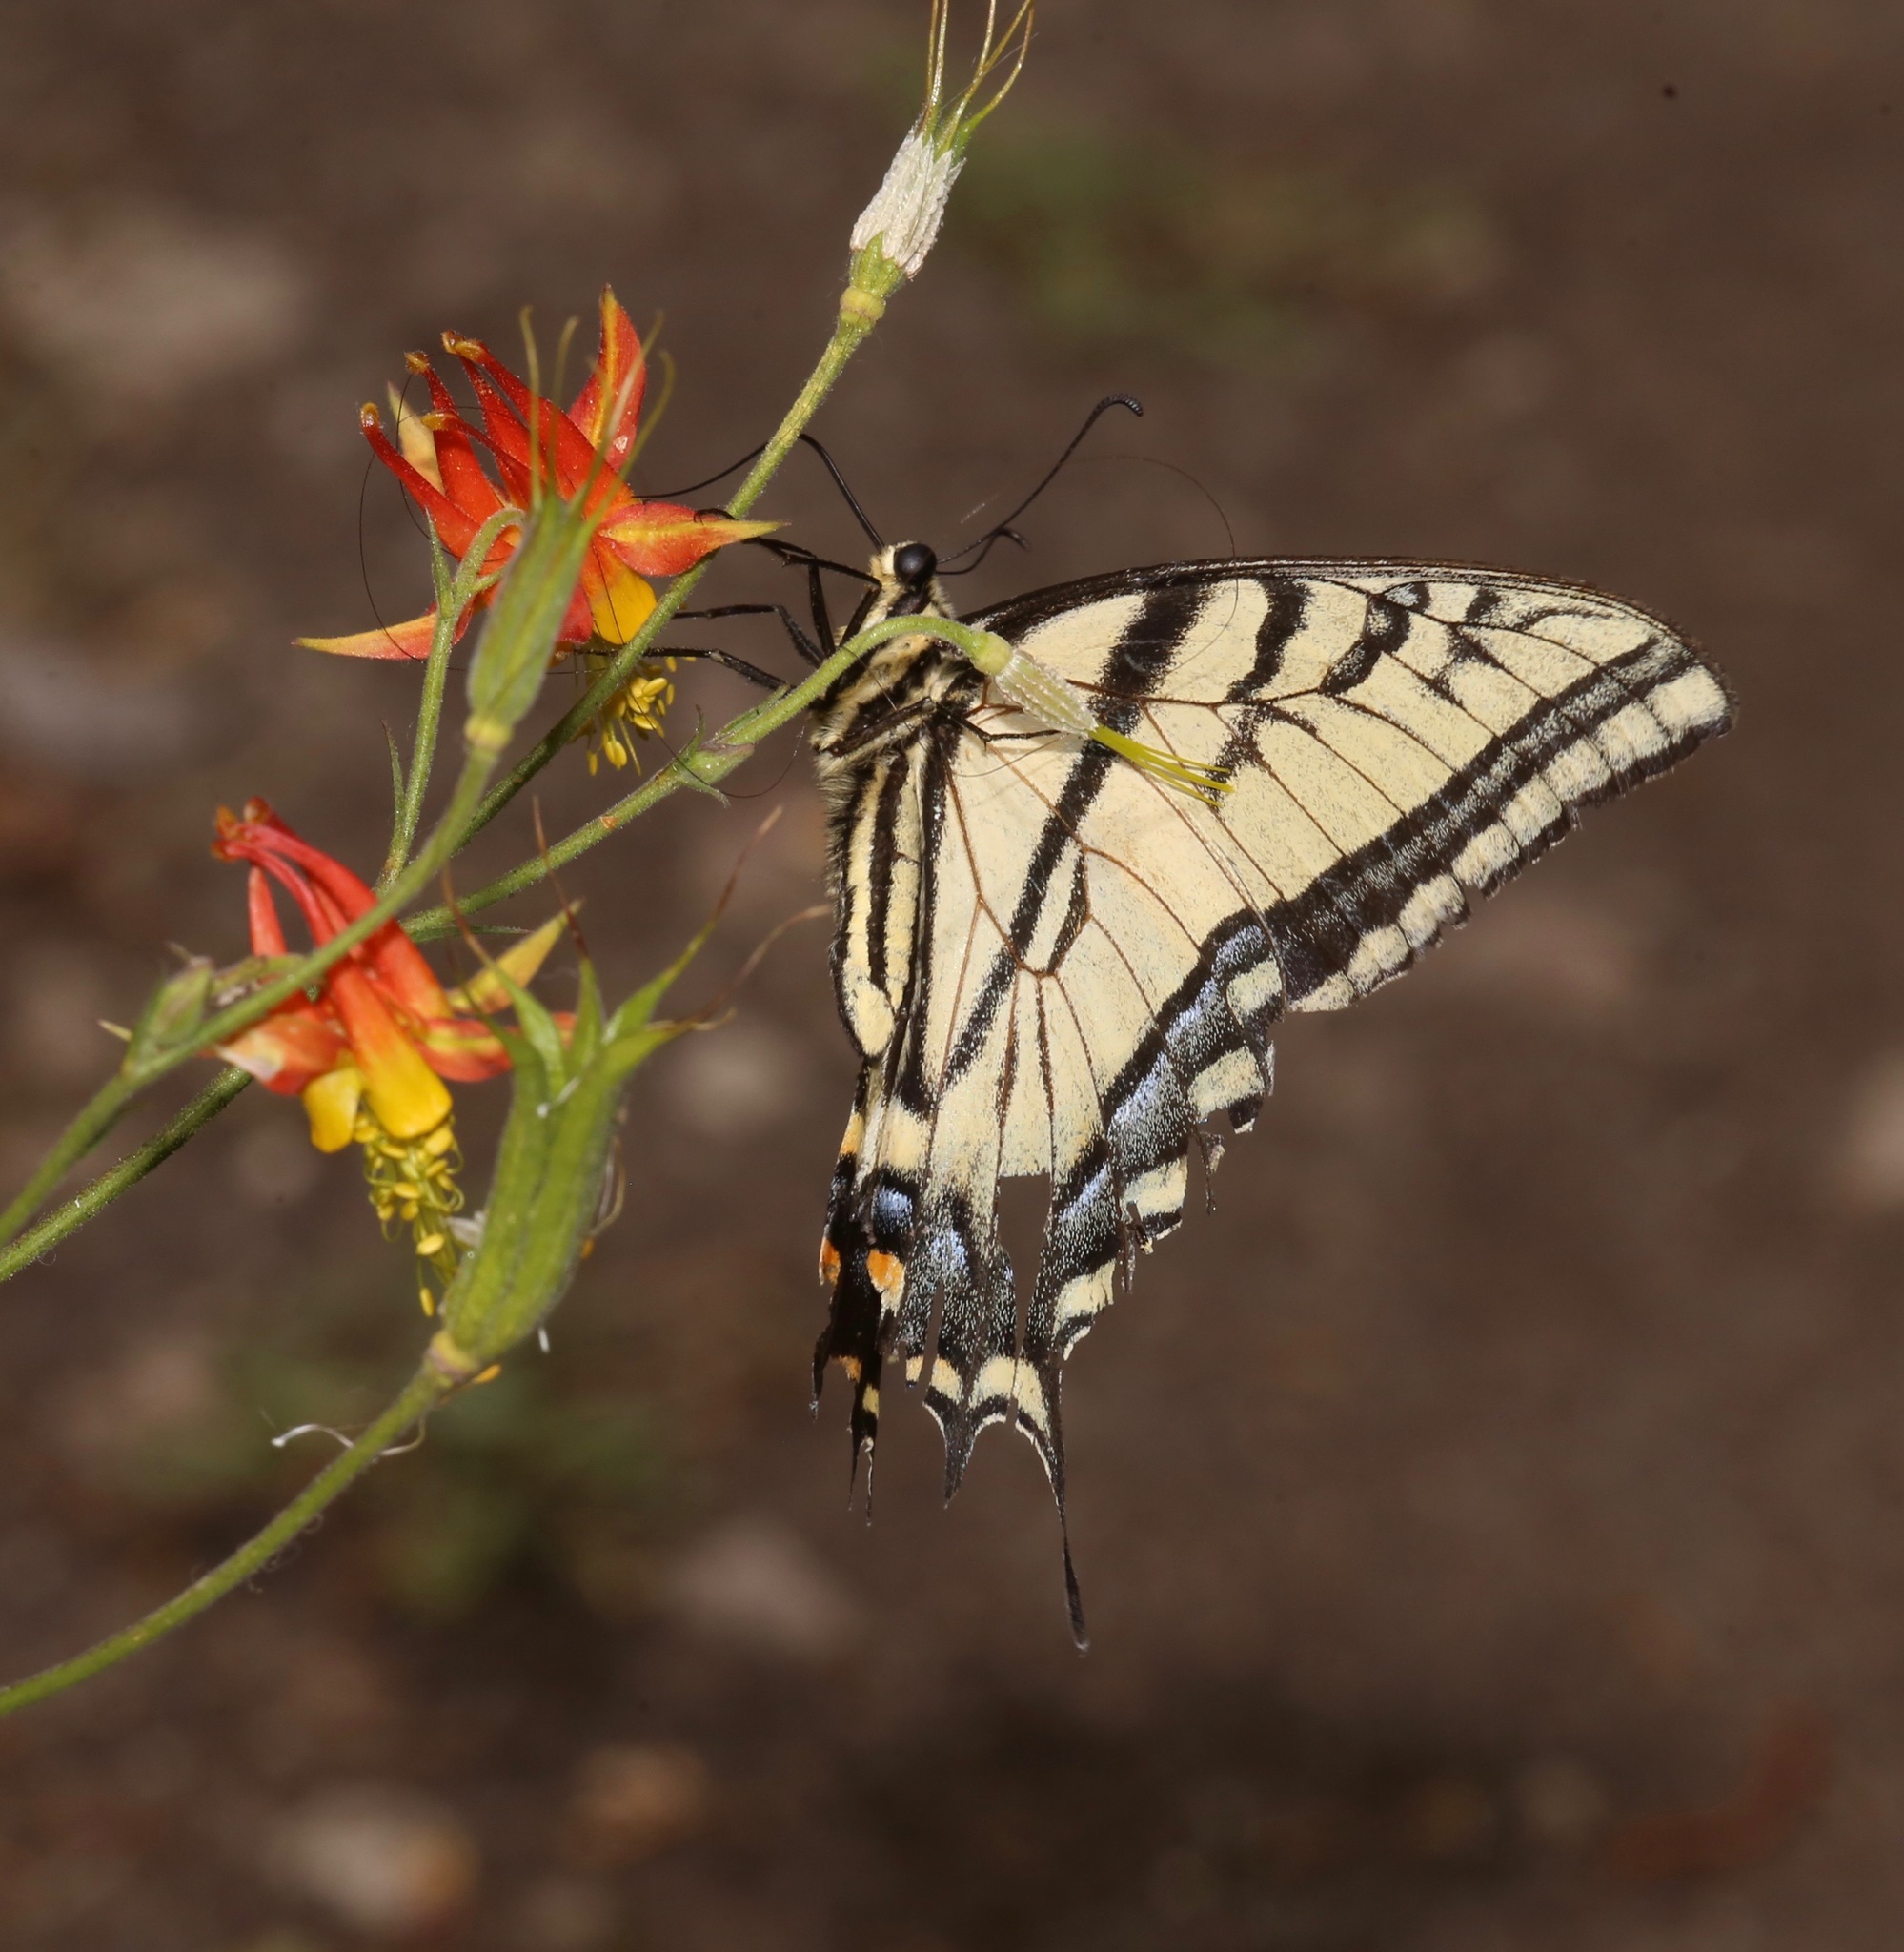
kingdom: Animalia
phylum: Arthropoda
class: Insecta
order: Lepidoptera
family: Papilionidae
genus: Papilio
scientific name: Papilio multicaudata
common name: Two-tailed tiger swallowtail
